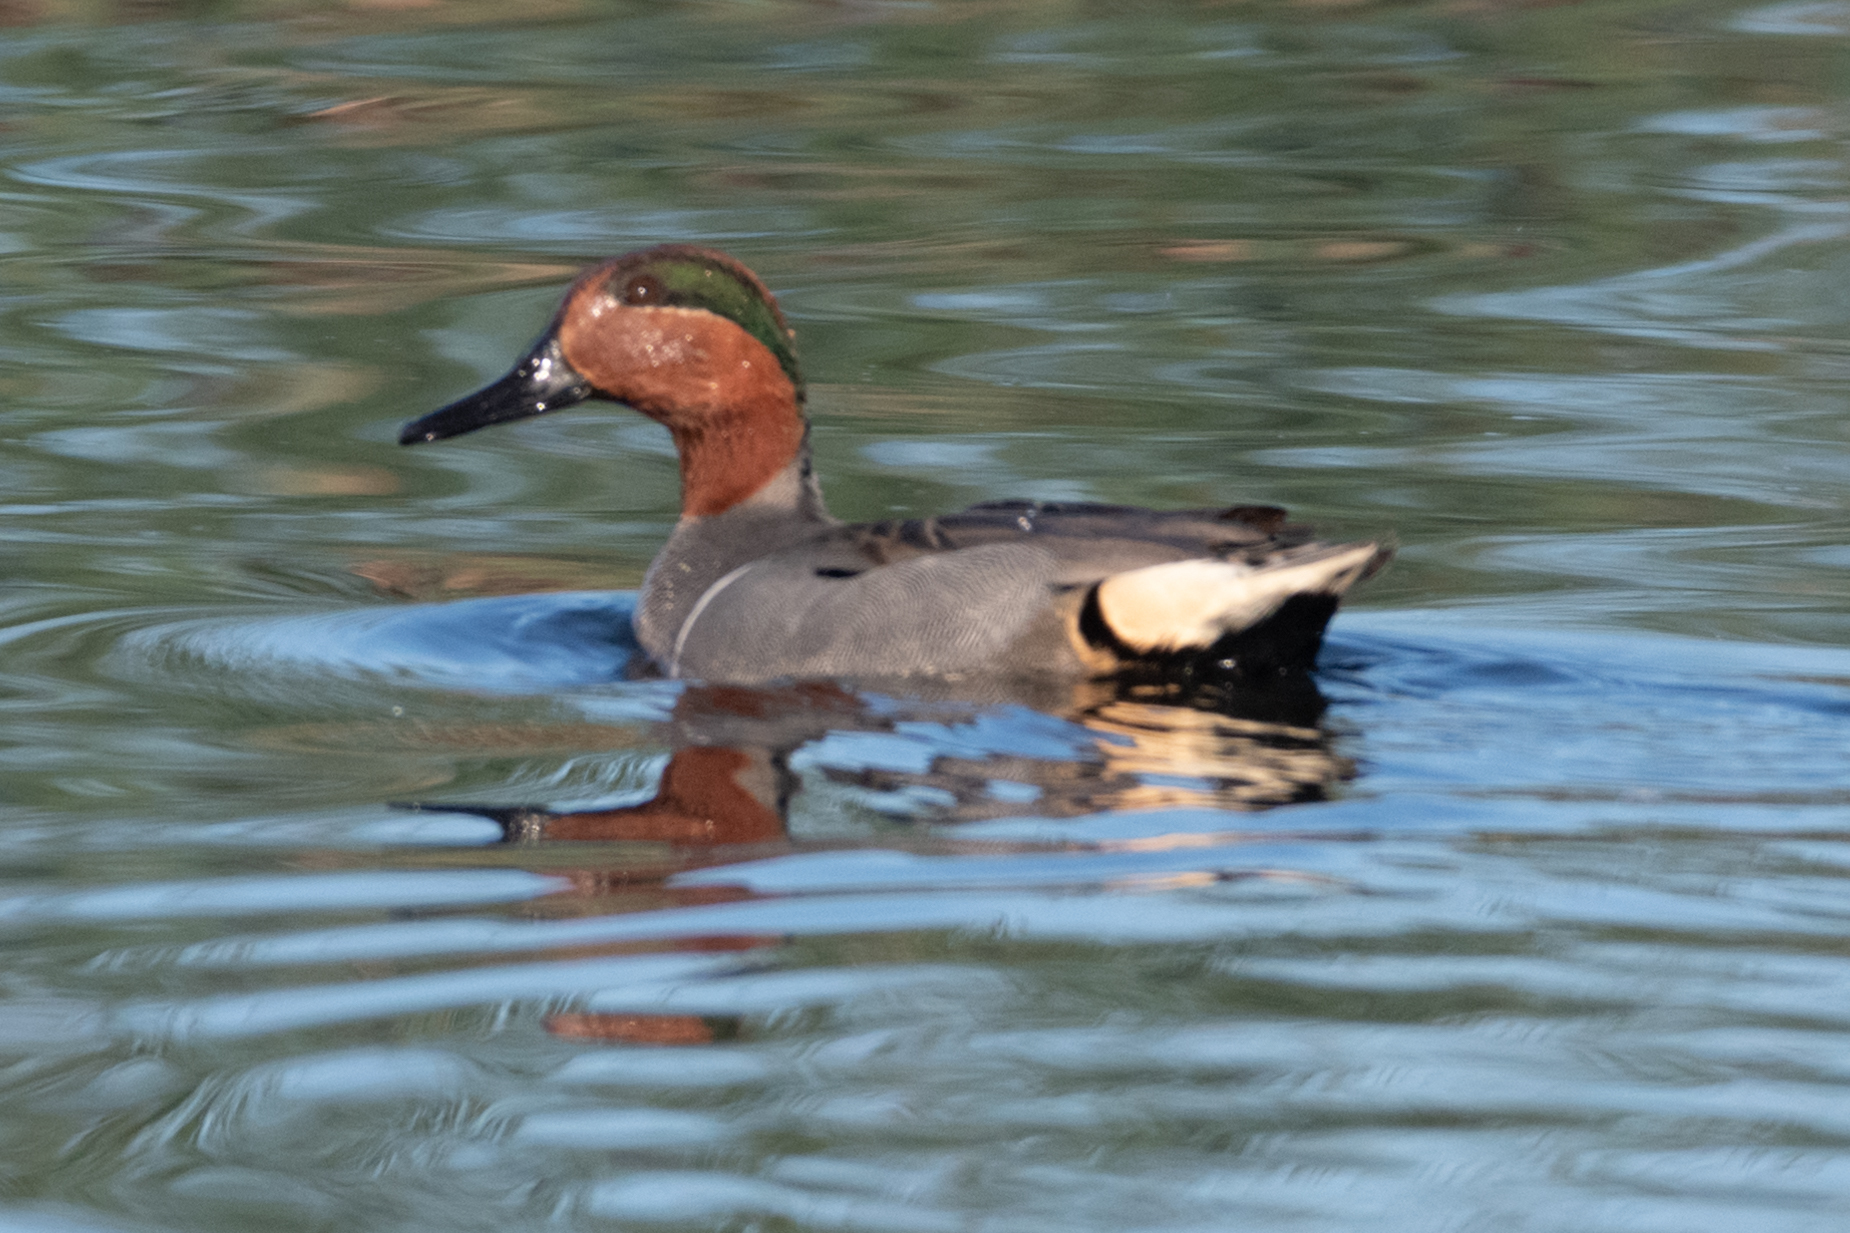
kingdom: Animalia
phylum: Chordata
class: Aves
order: Anseriformes
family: Anatidae
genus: Anas
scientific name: Anas crecca
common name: Eurasian teal
